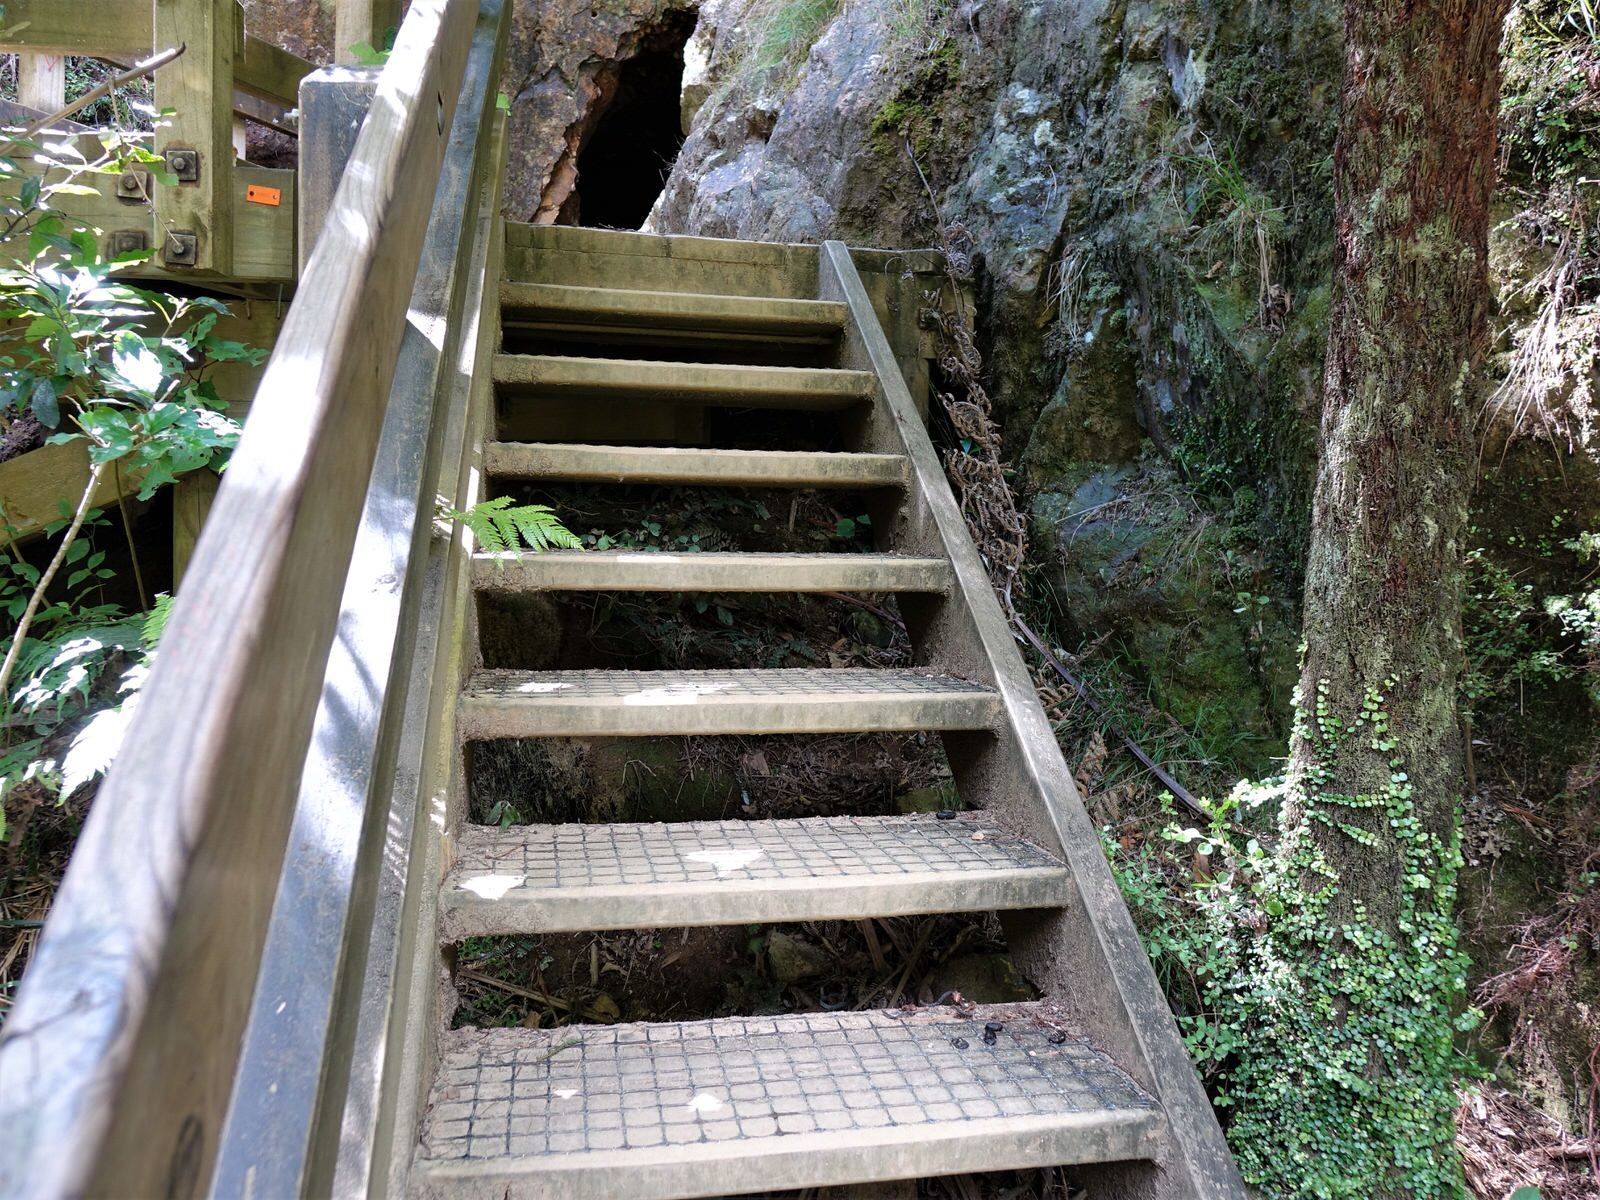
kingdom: Animalia
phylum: Chordata
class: Mammalia
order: Diprotodontia
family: Phalangeridae
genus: Trichosurus
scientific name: Trichosurus vulpecula
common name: Common brushtail
